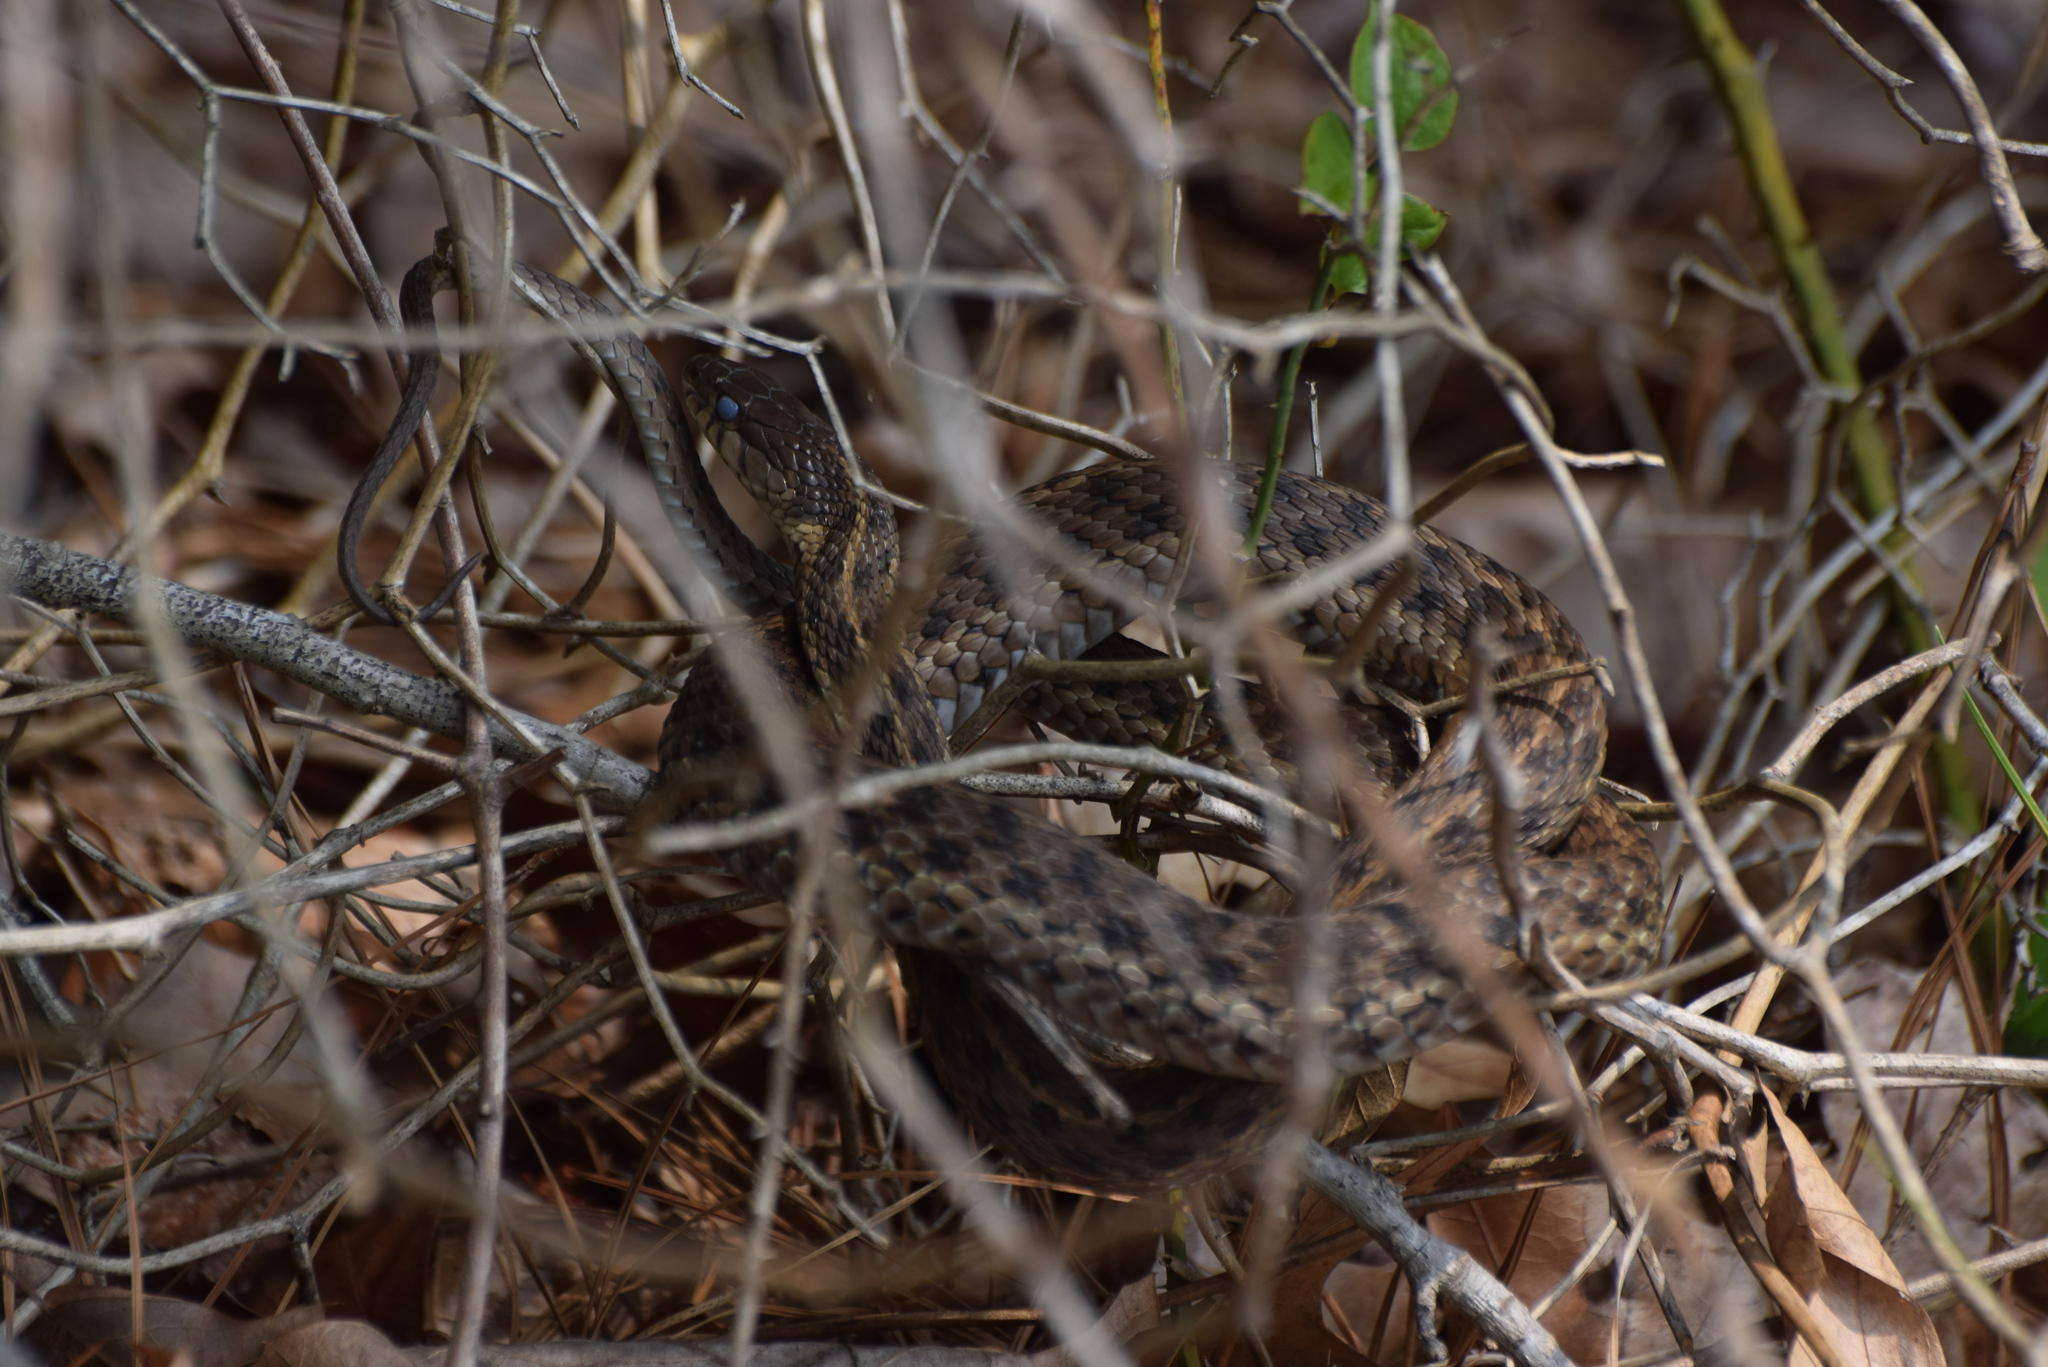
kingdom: Animalia
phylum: Chordata
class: Squamata
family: Colubridae
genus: Thamnophis
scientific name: Thamnophis sirtalis
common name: Common garter snake
